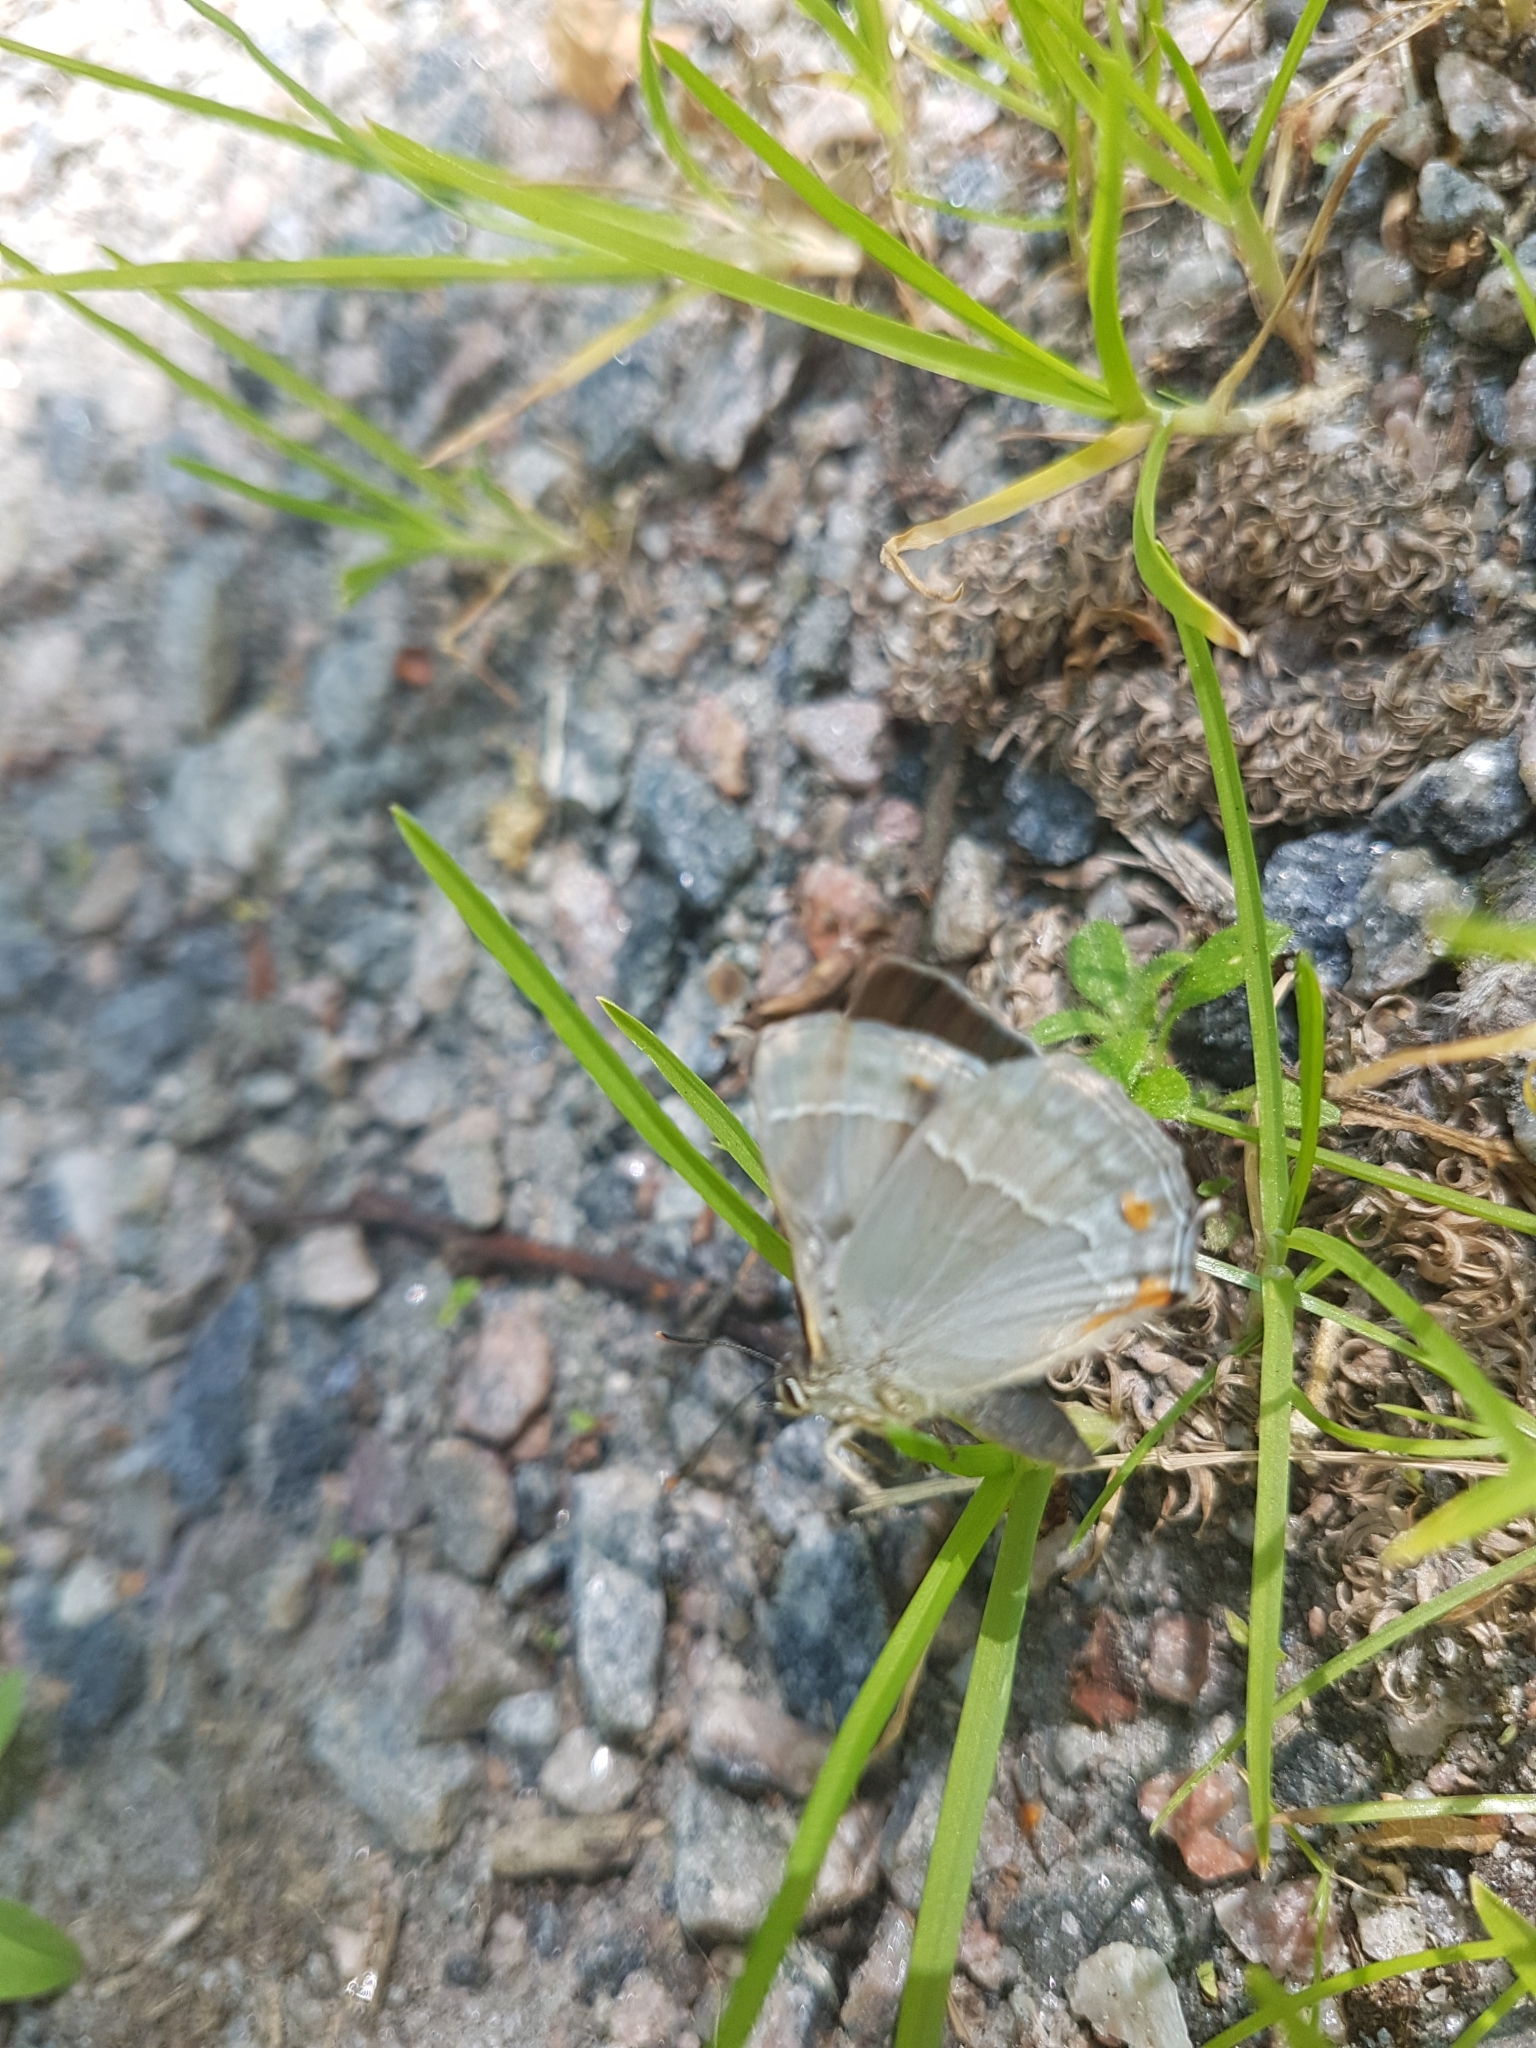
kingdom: Animalia
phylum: Arthropoda
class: Insecta
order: Lepidoptera
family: Lycaenidae
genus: Quercusia
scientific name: Quercusia quercus
